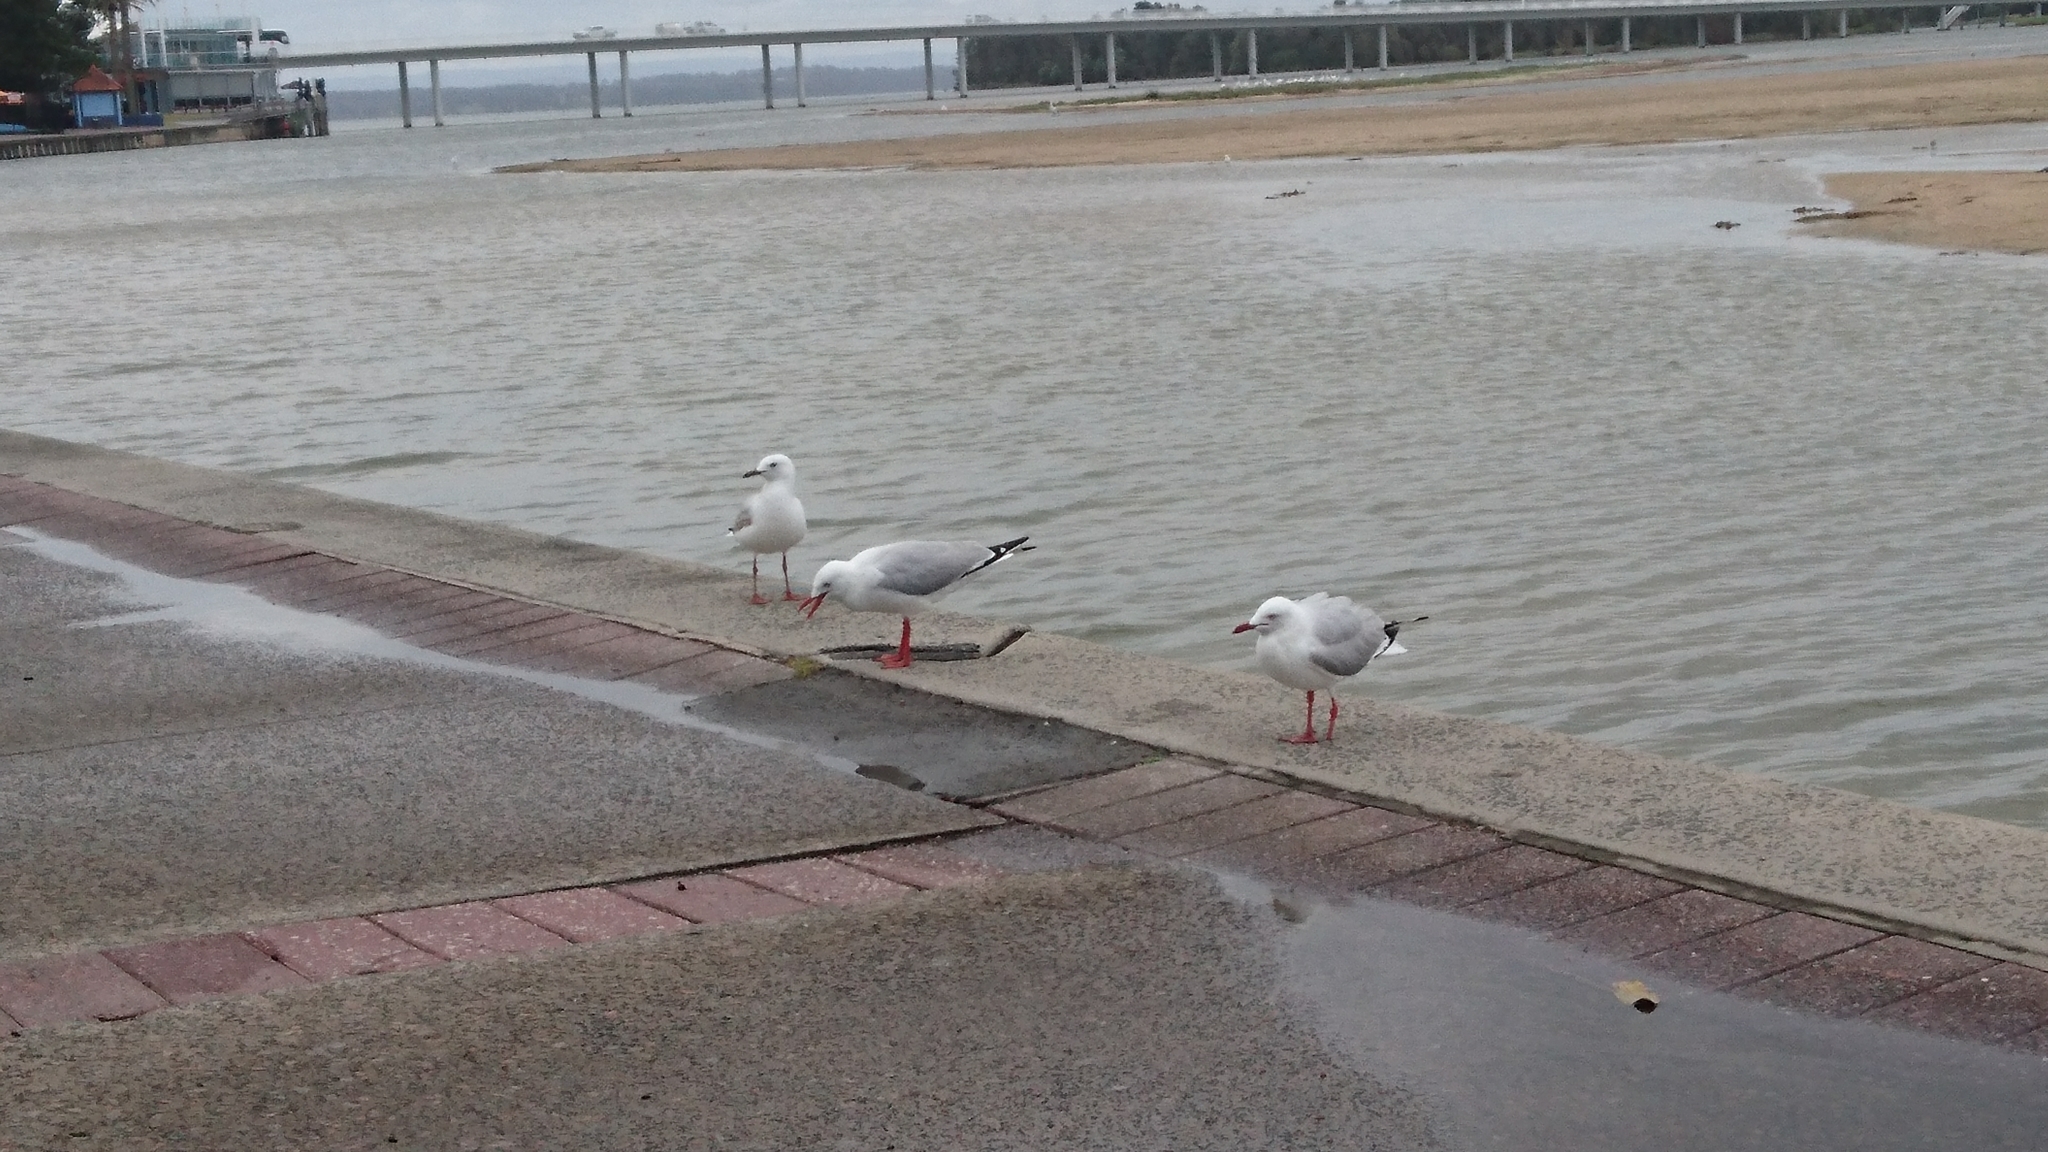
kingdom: Animalia
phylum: Chordata
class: Aves
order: Charadriiformes
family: Laridae
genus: Chroicocephalus
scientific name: Chroicocephalus novaehollandiae
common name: Silver gull
